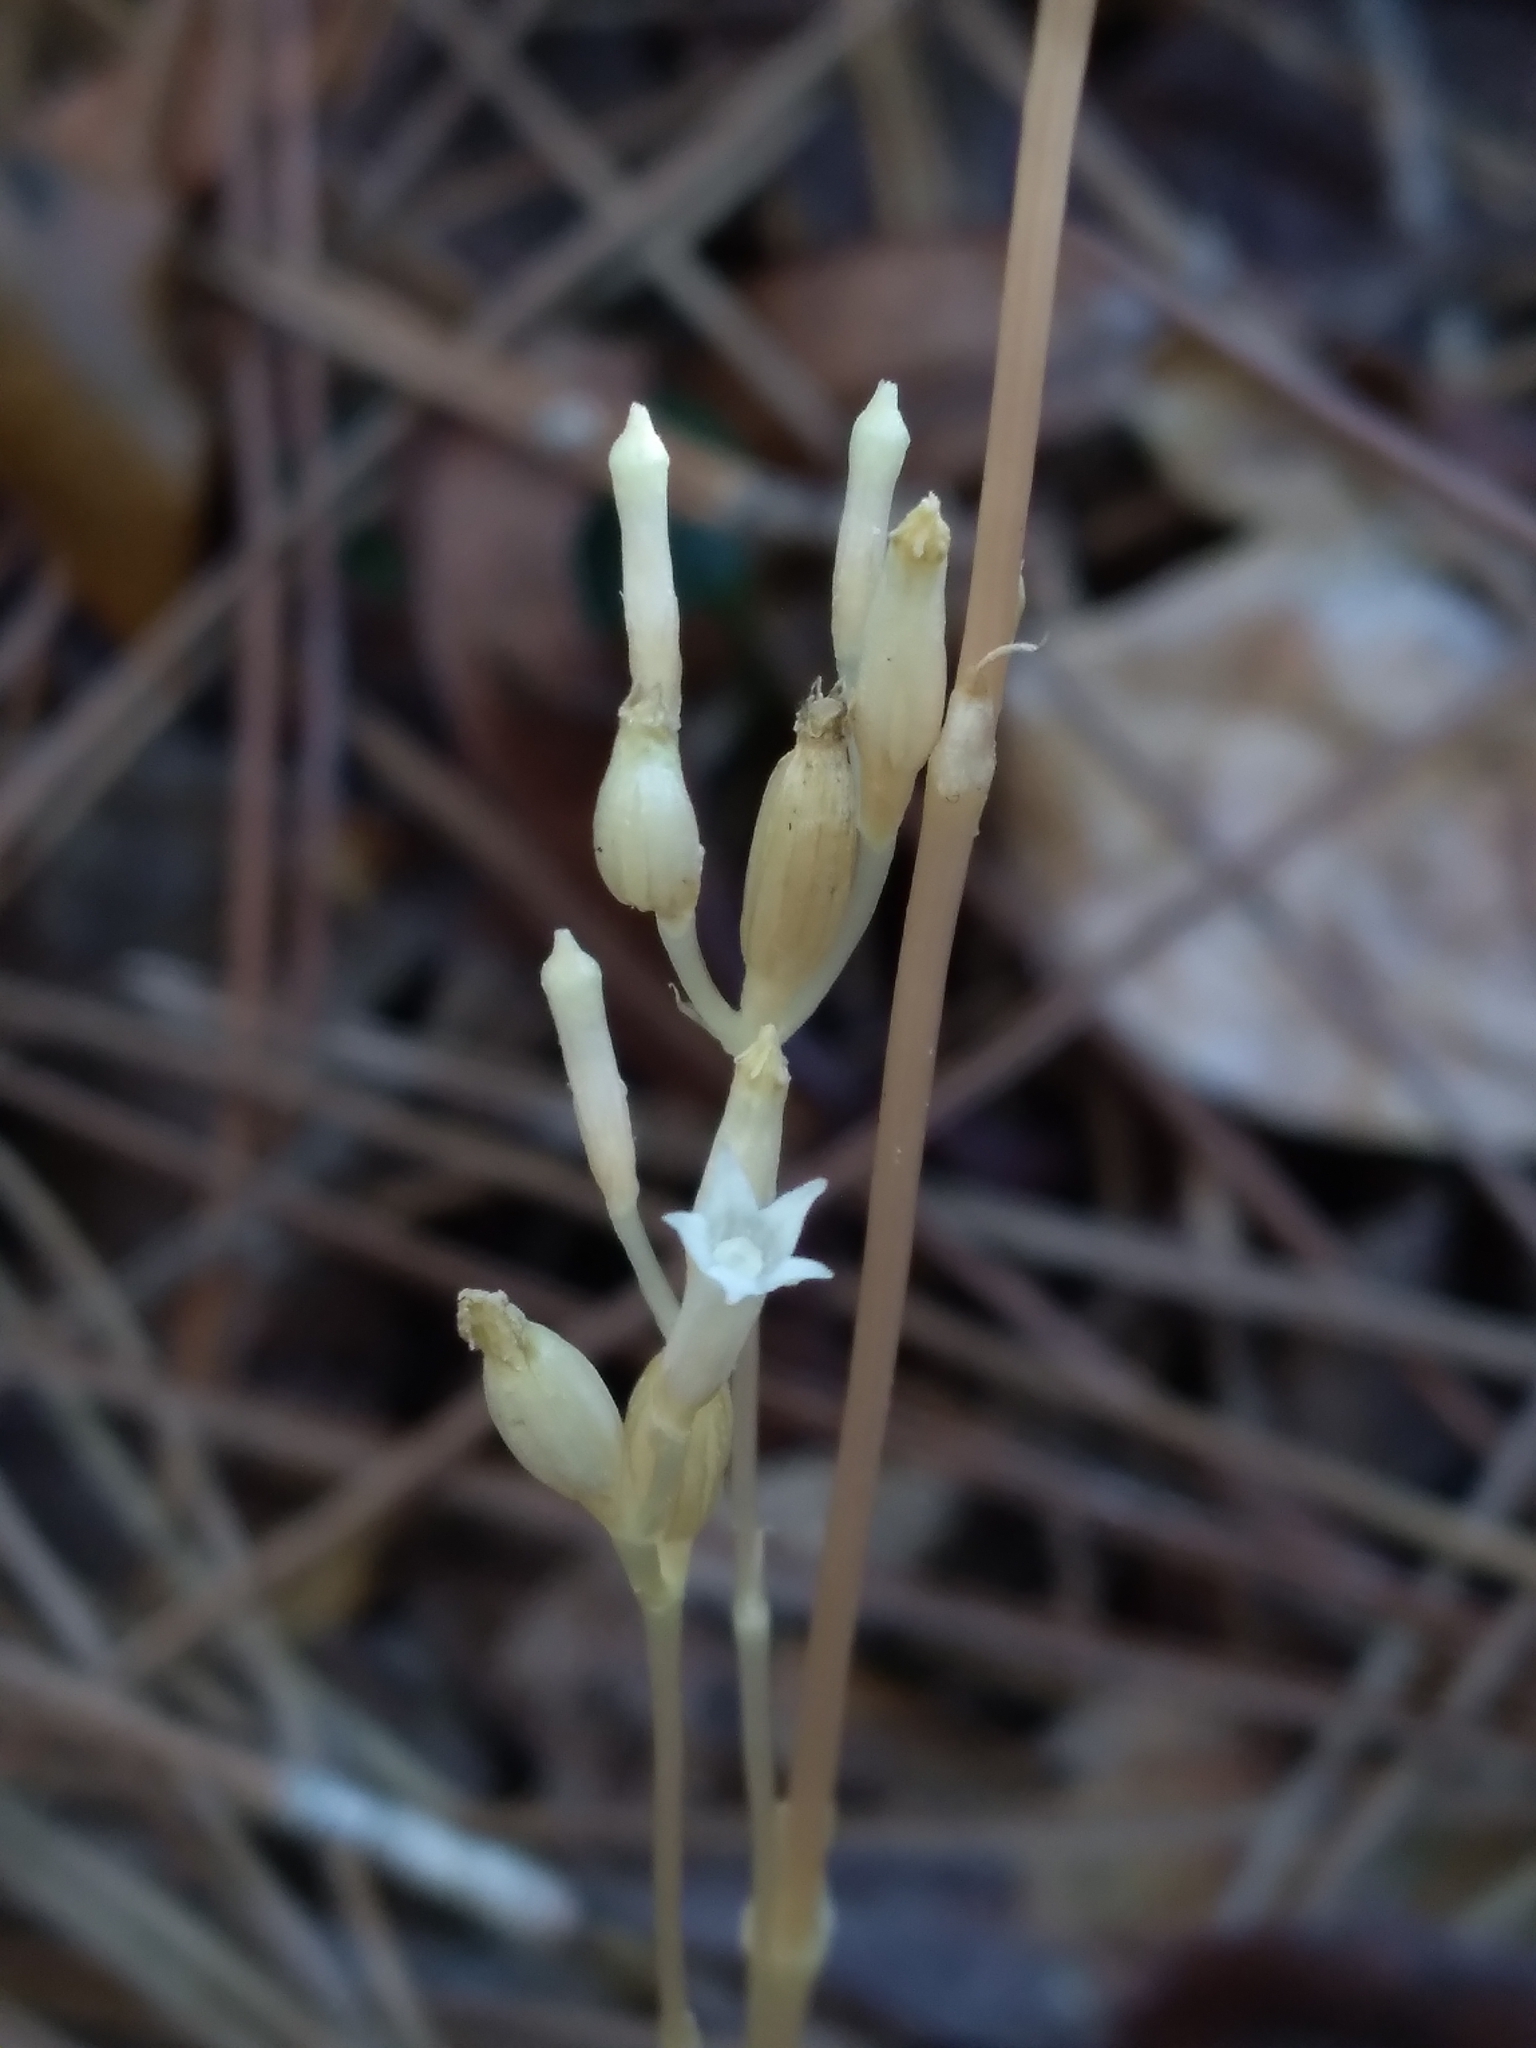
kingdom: Plantae
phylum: Tracheophyta
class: Magnoliopsida
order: Gentianales
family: Gentianaceae
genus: Voyria
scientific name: Voyria parasitica
